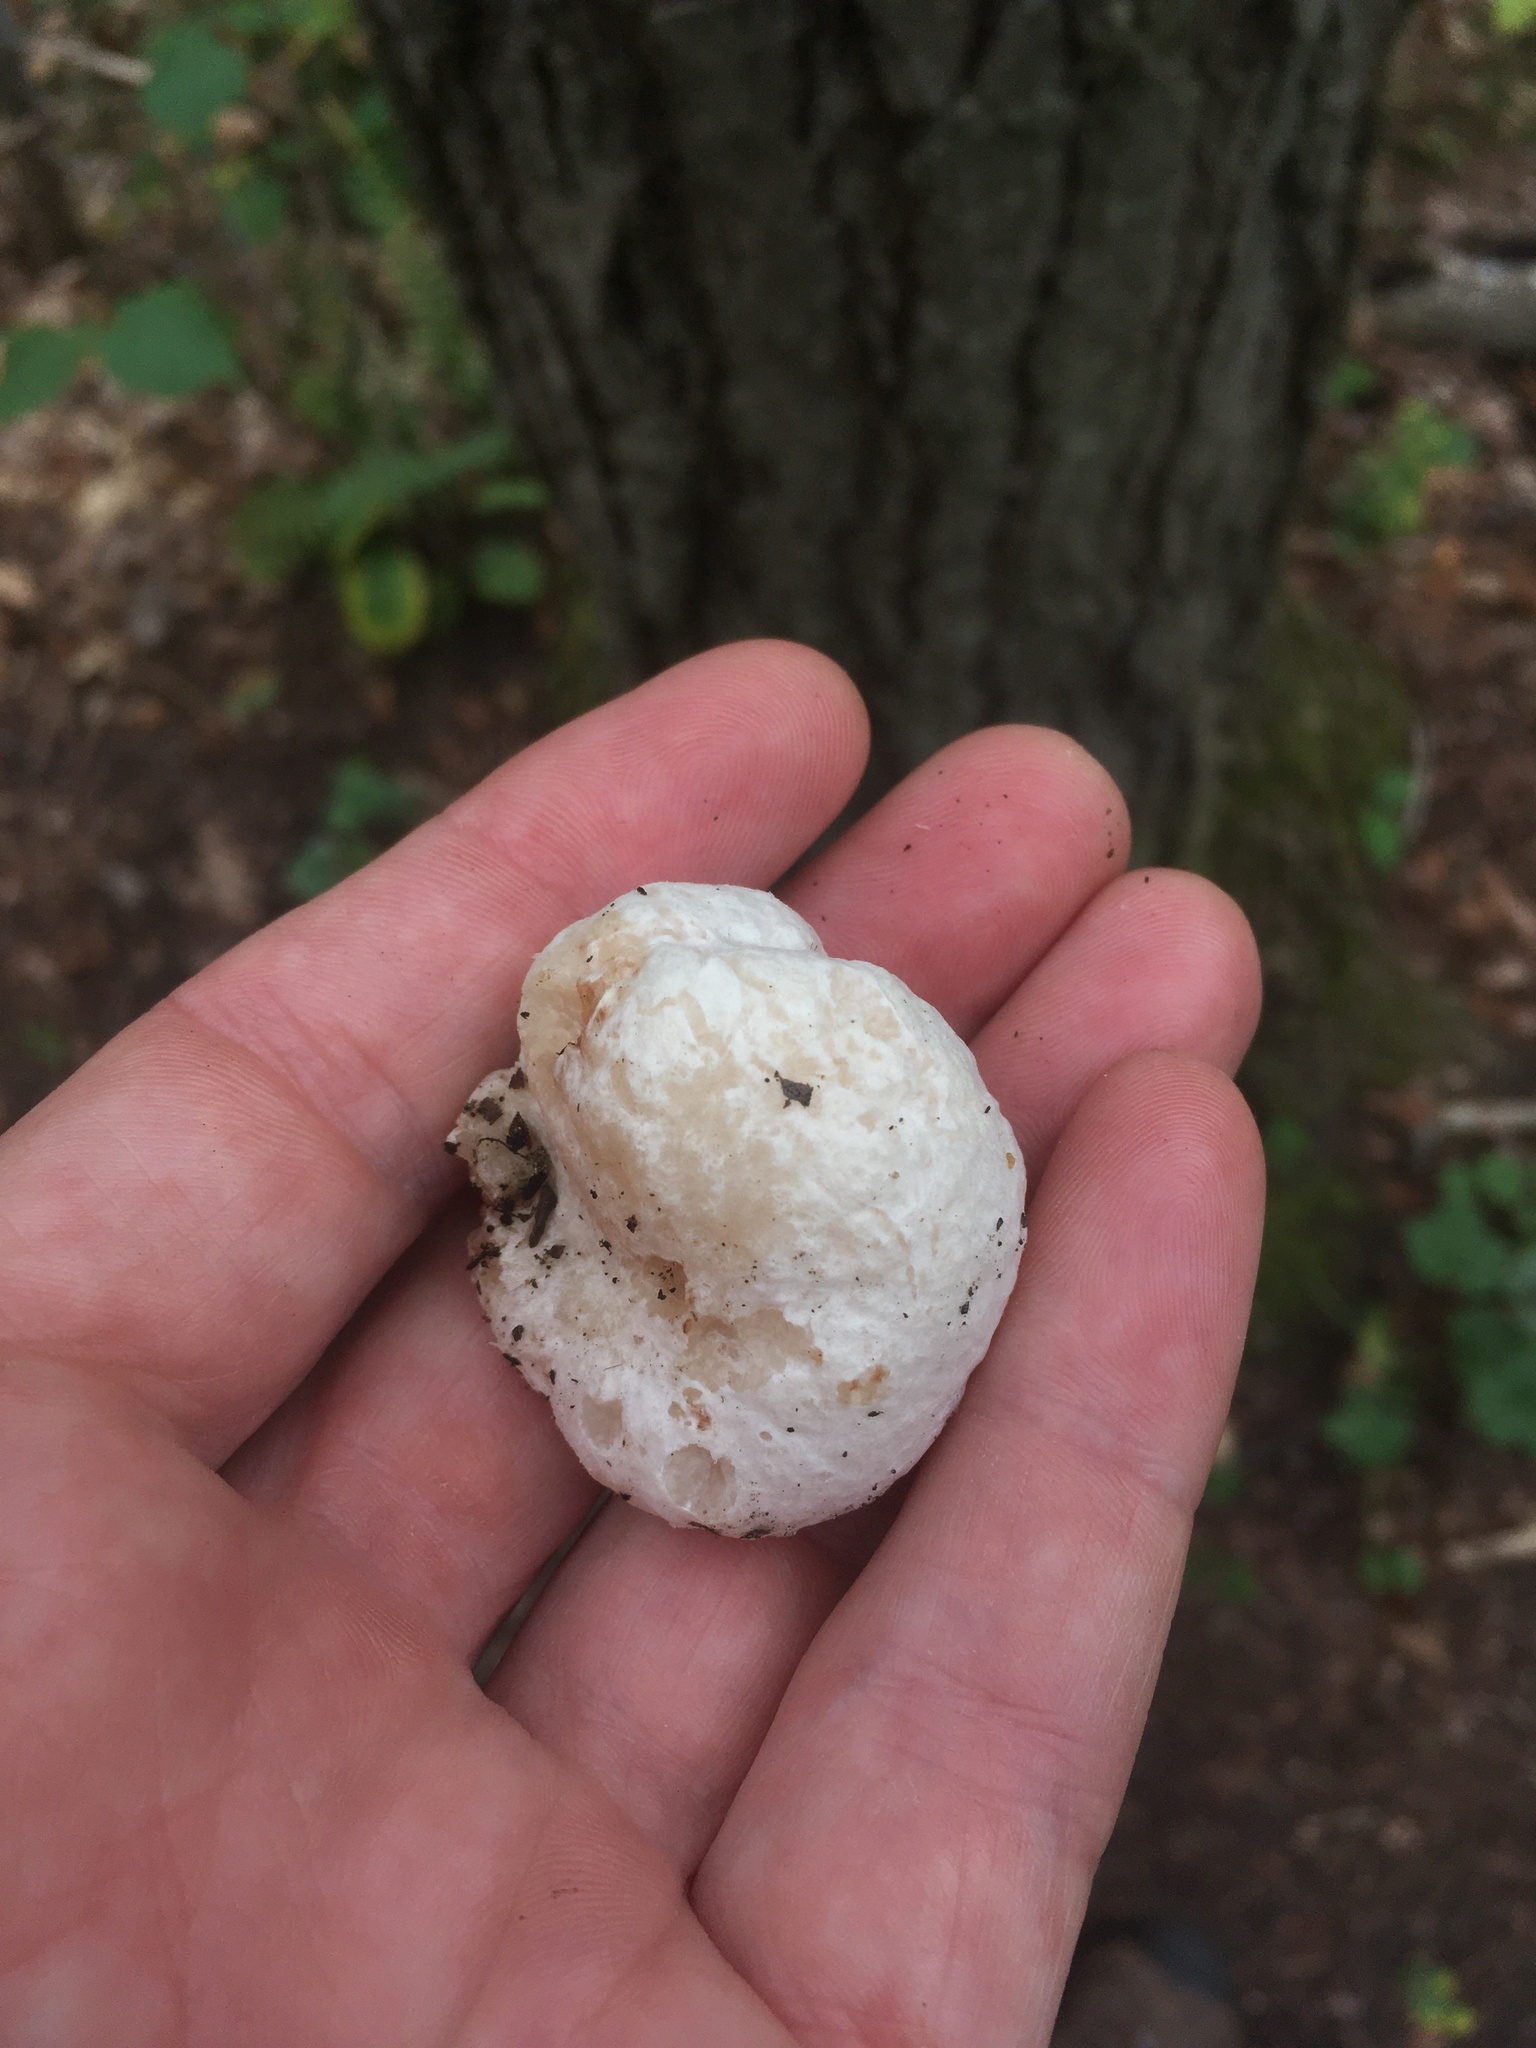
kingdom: Fungi
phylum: Basidiomycota
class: Agaricomycetes
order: Agaricales
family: Entolomataceae
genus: Entoloma
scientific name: Entoloma abortivum
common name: Aborted entoloma
